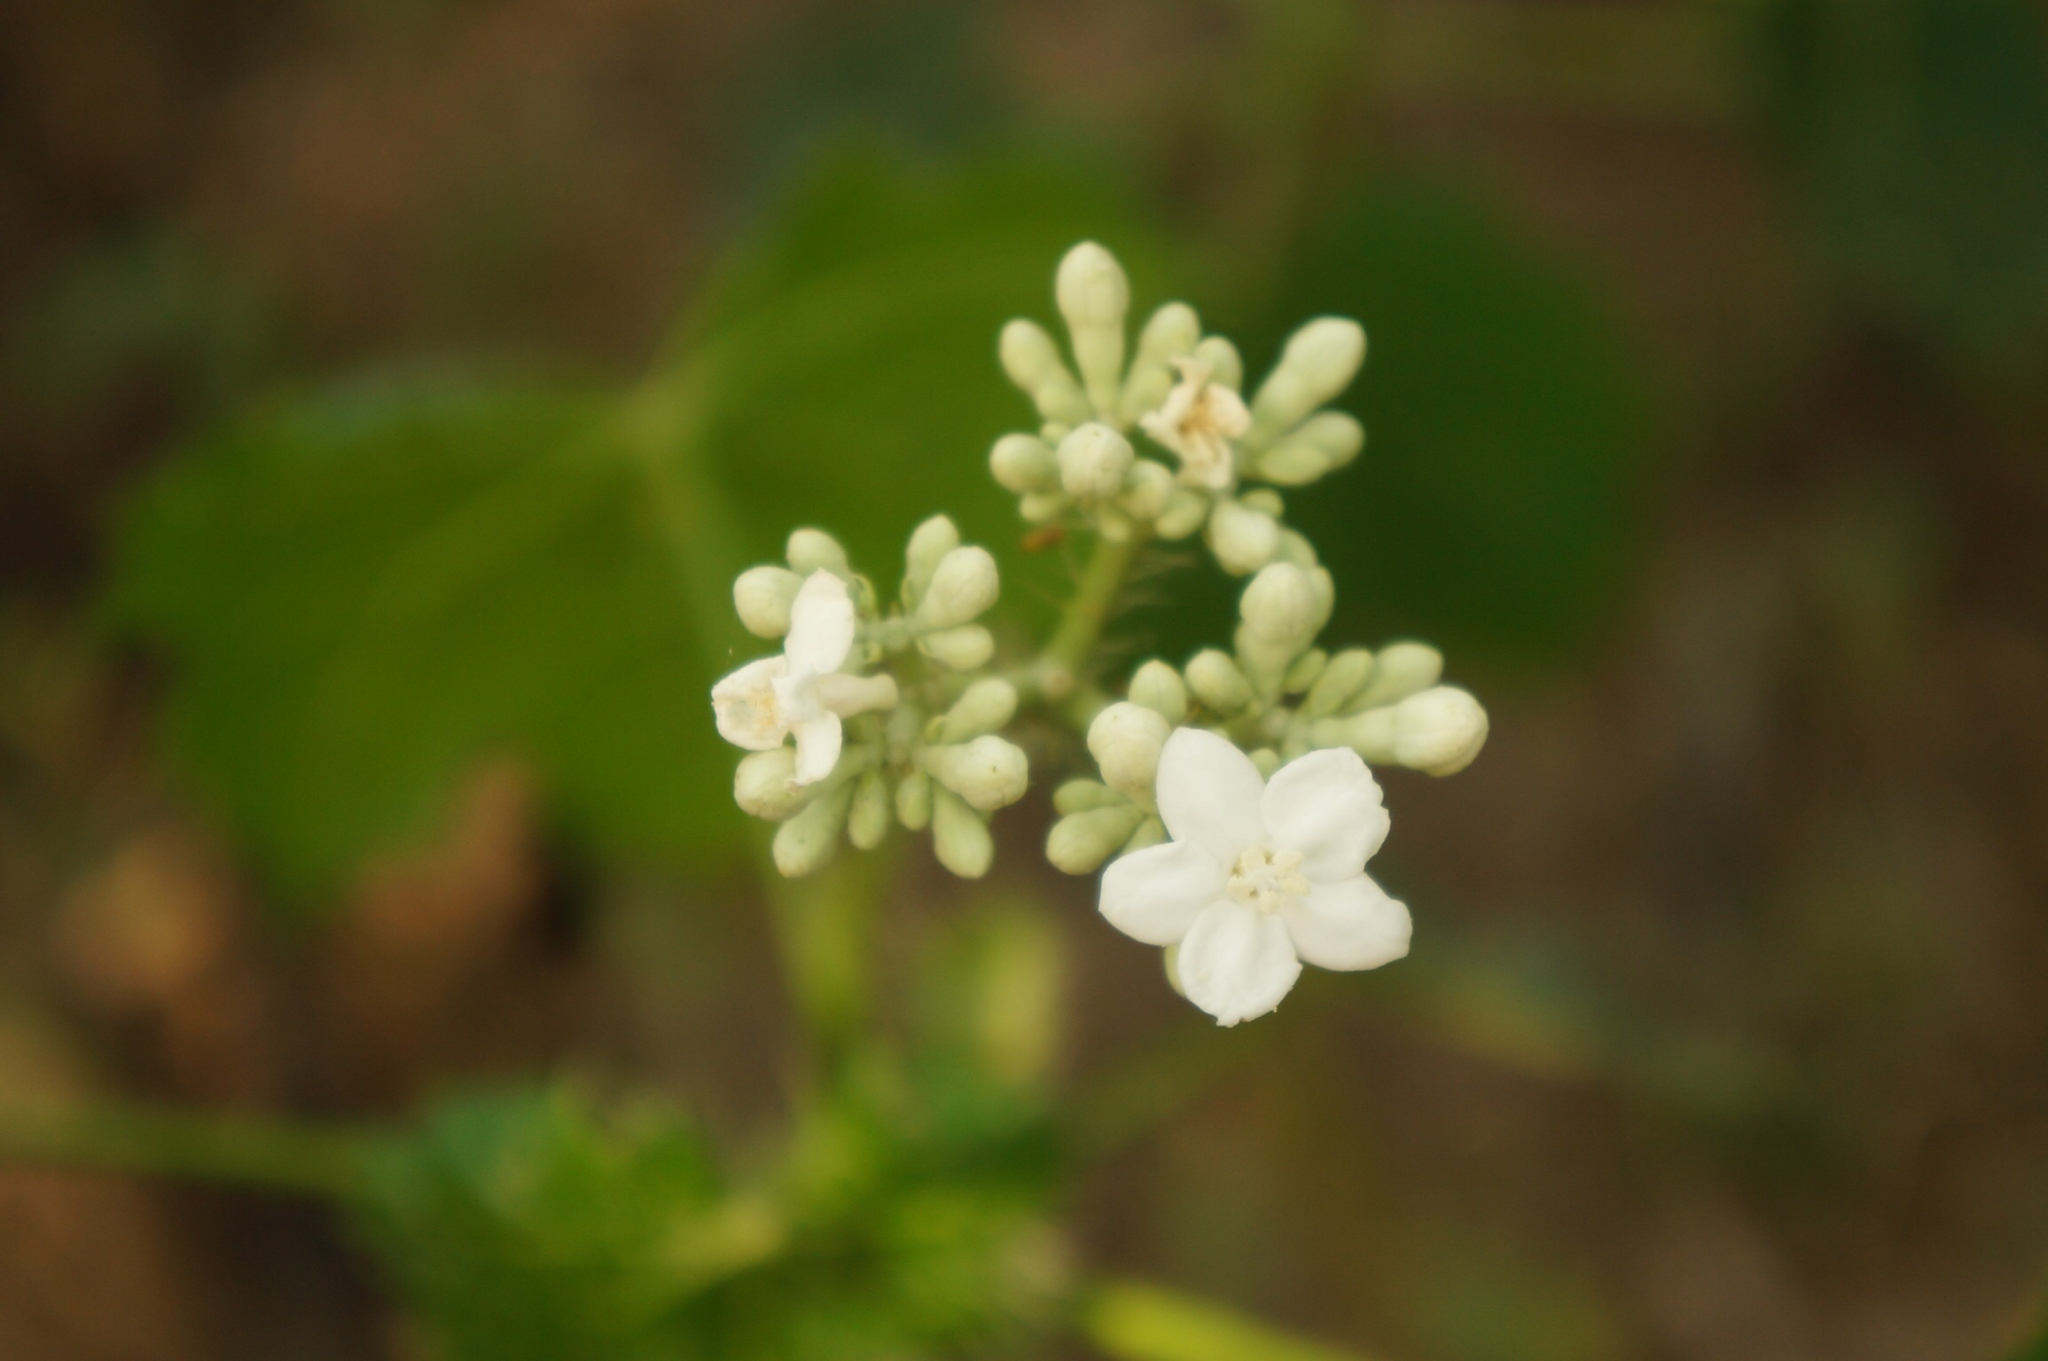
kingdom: Plantae
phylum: Tracheophyta
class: Magnoliopsida
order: Malpighiales
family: Euphorbiaceae
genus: Cnidoscolus
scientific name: Cnidoscolus rotundifolius
